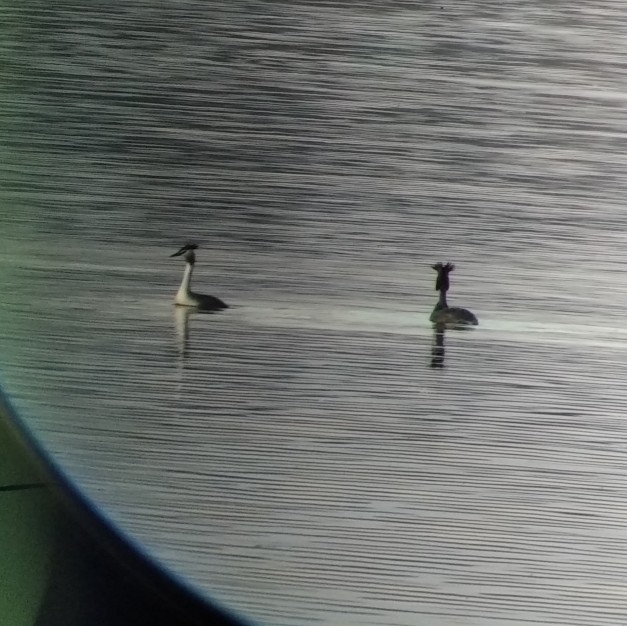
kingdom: Animalia
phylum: Chordata
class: Aves
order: Podicipediformes
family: Podicipedidae
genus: Podiceps
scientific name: Podiceps cristatus
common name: Great crested grebe
